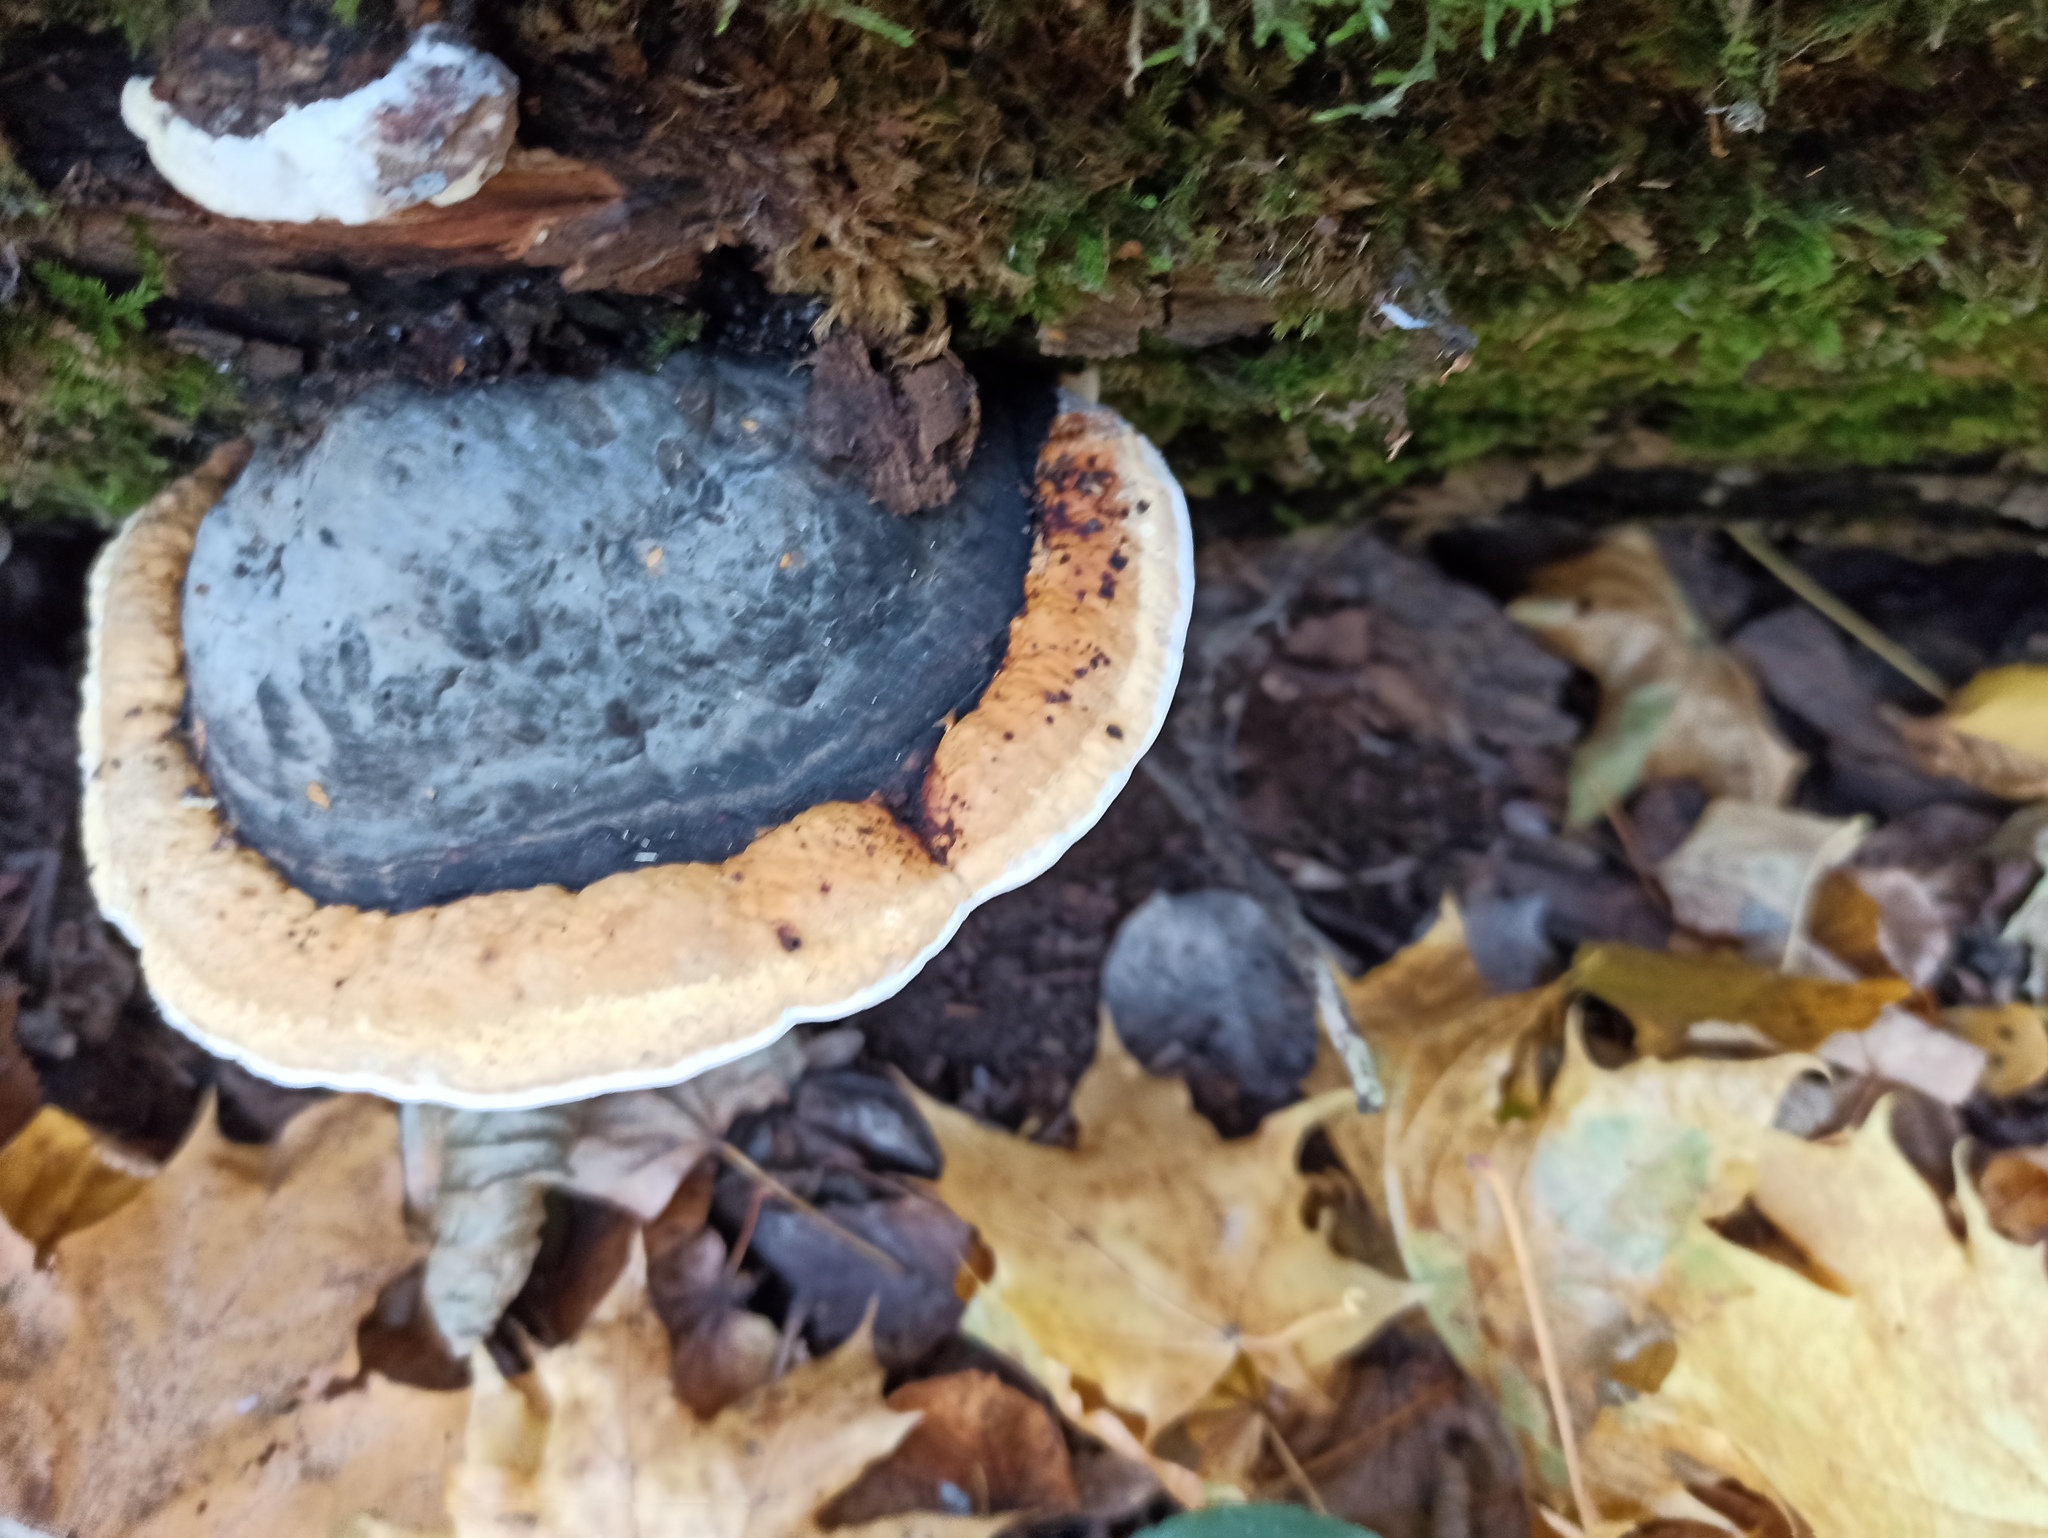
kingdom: Fungi
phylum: Basidiomycota
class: Agaricomycetes
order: Polyporales
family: Fomitopsidaceae
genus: Fomitopsis
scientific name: Fomitopsis pinicola
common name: Red-belted bracket
